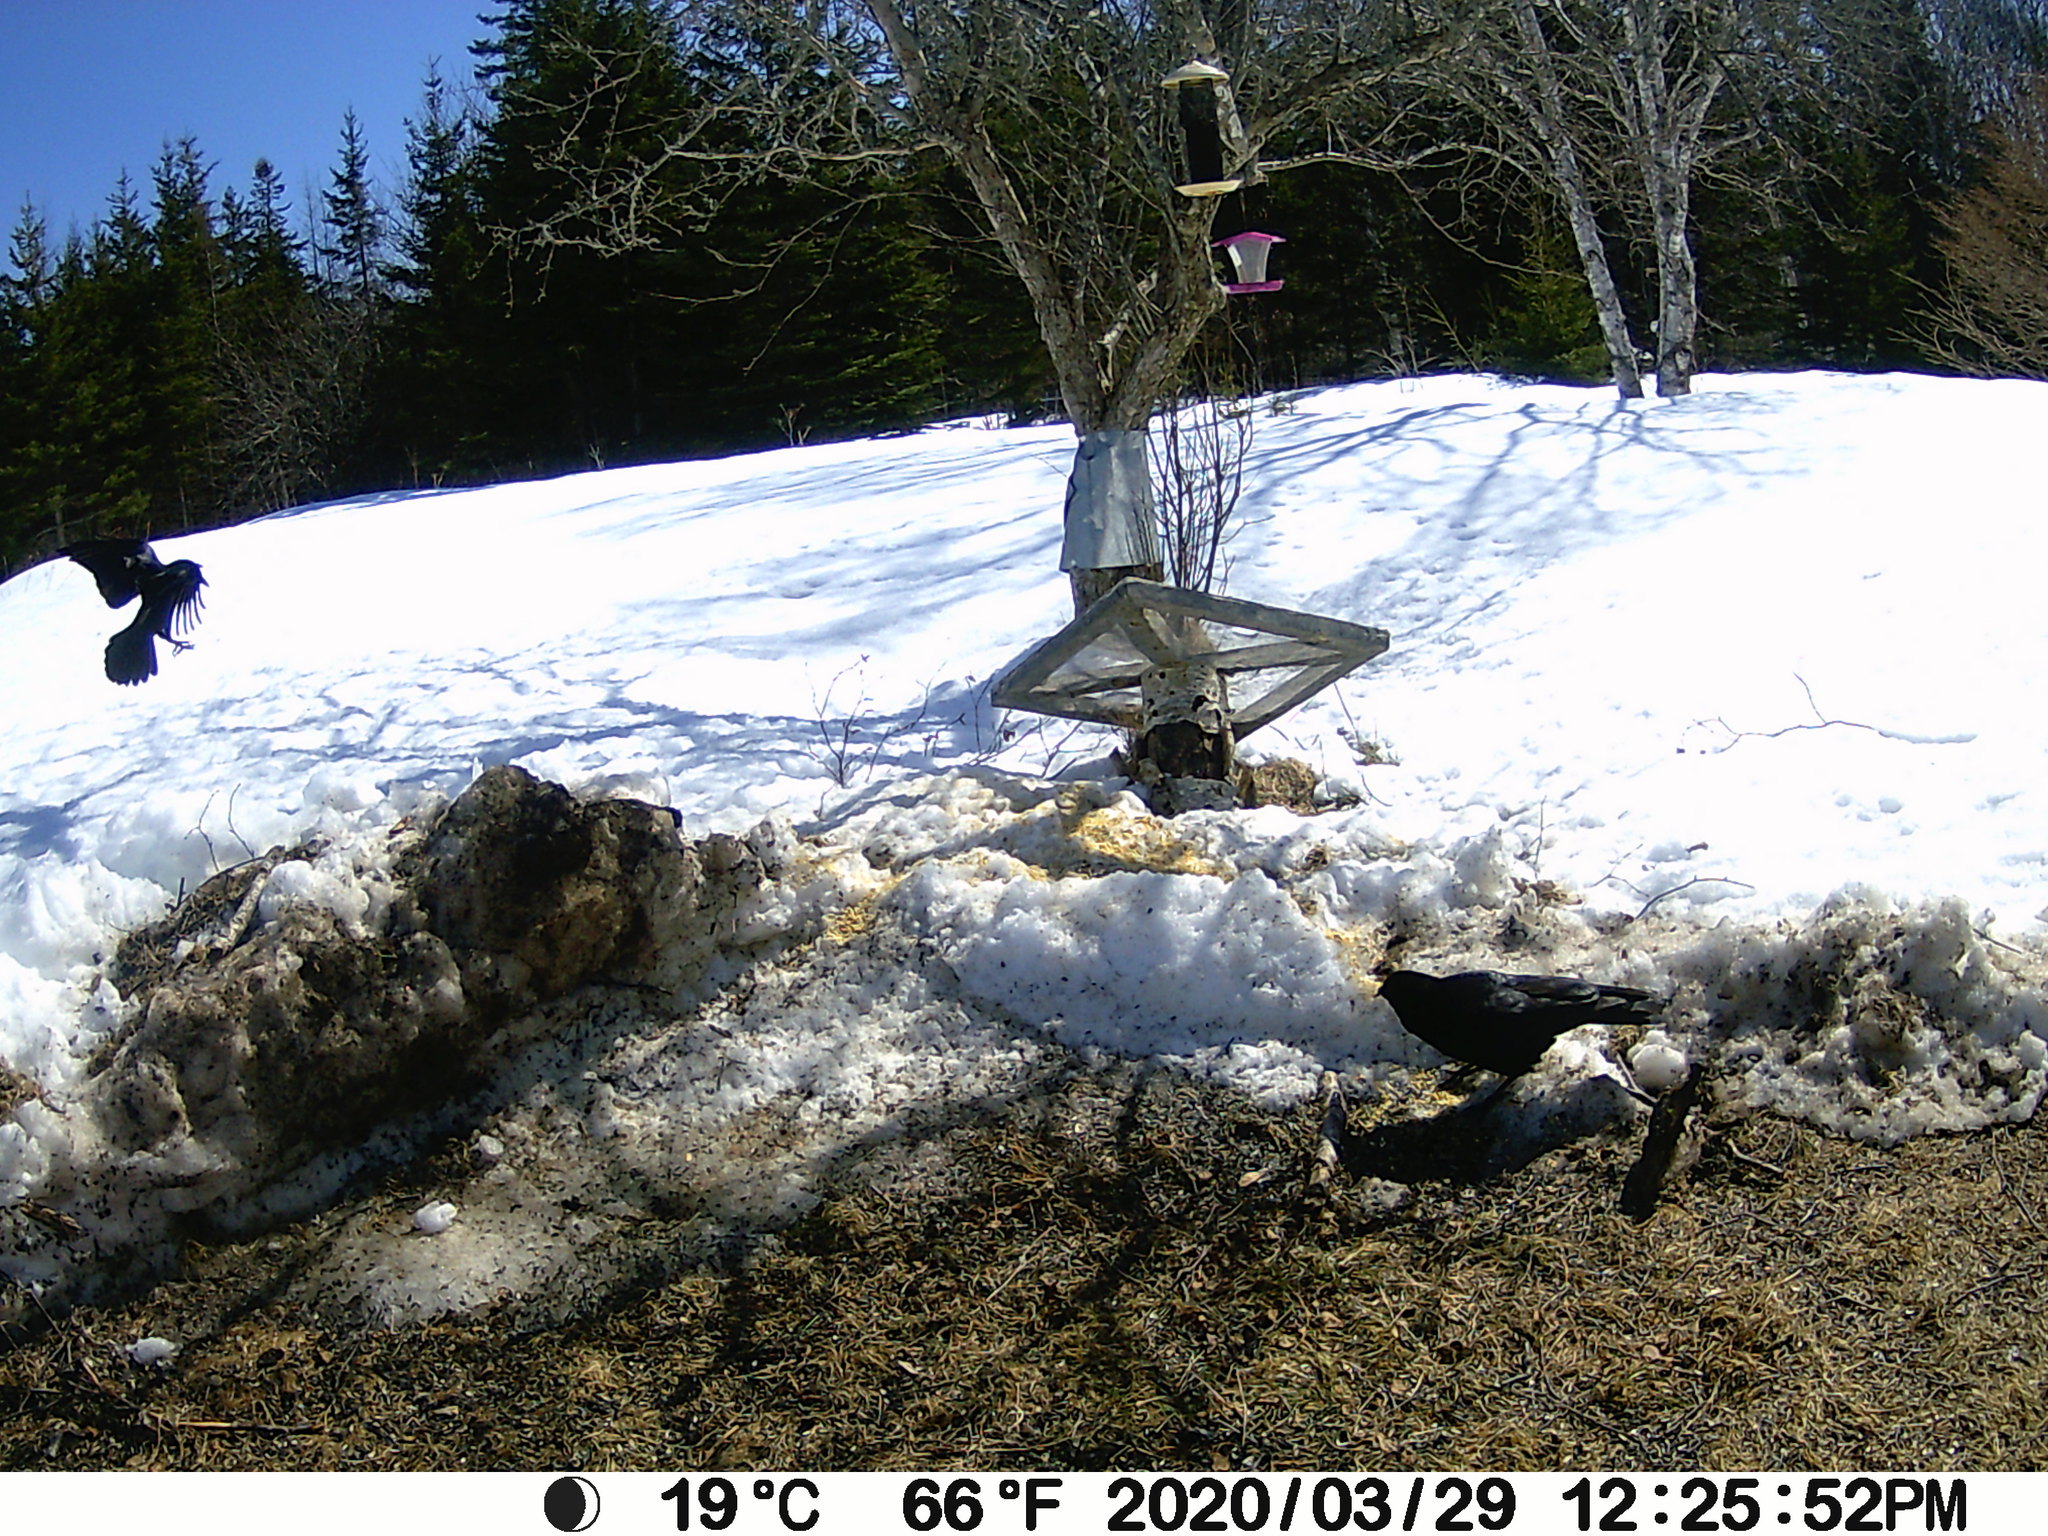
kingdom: Animalia
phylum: Chordata
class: Aves
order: Passeriformes
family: Corvidae
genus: Corvus
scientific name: Corvus brachyrhynchos
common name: American crow
